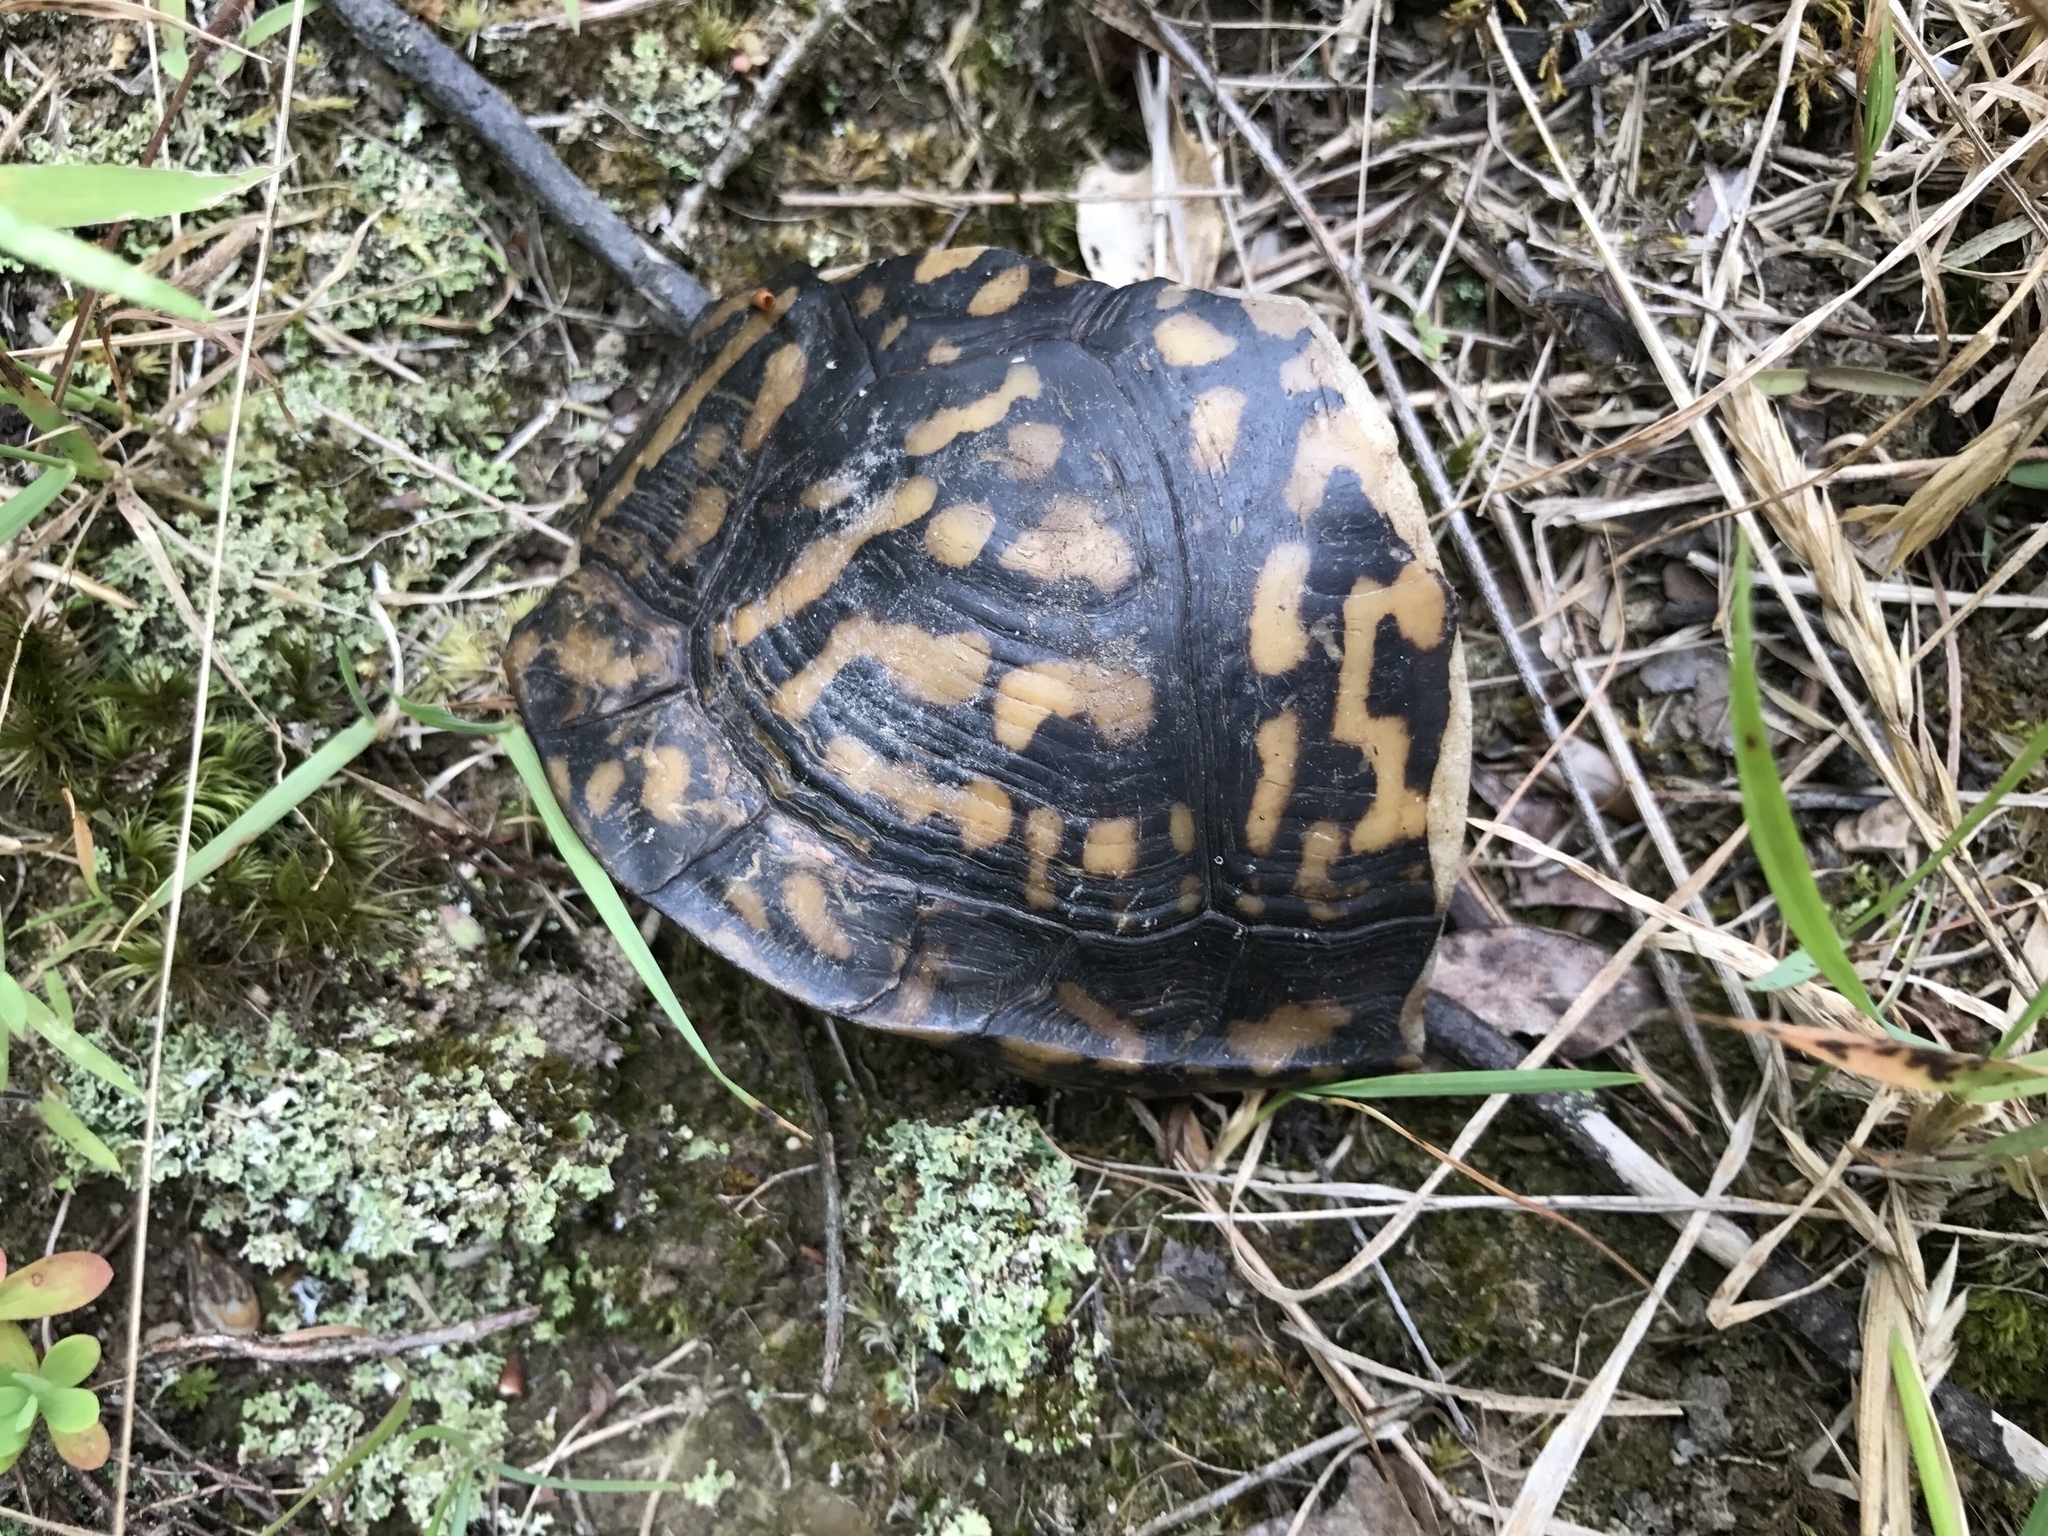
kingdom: Animalia
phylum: Chordata
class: Testudines
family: Emydidae
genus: Terrapene
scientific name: Terrapene carolina
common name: Common box turtle
